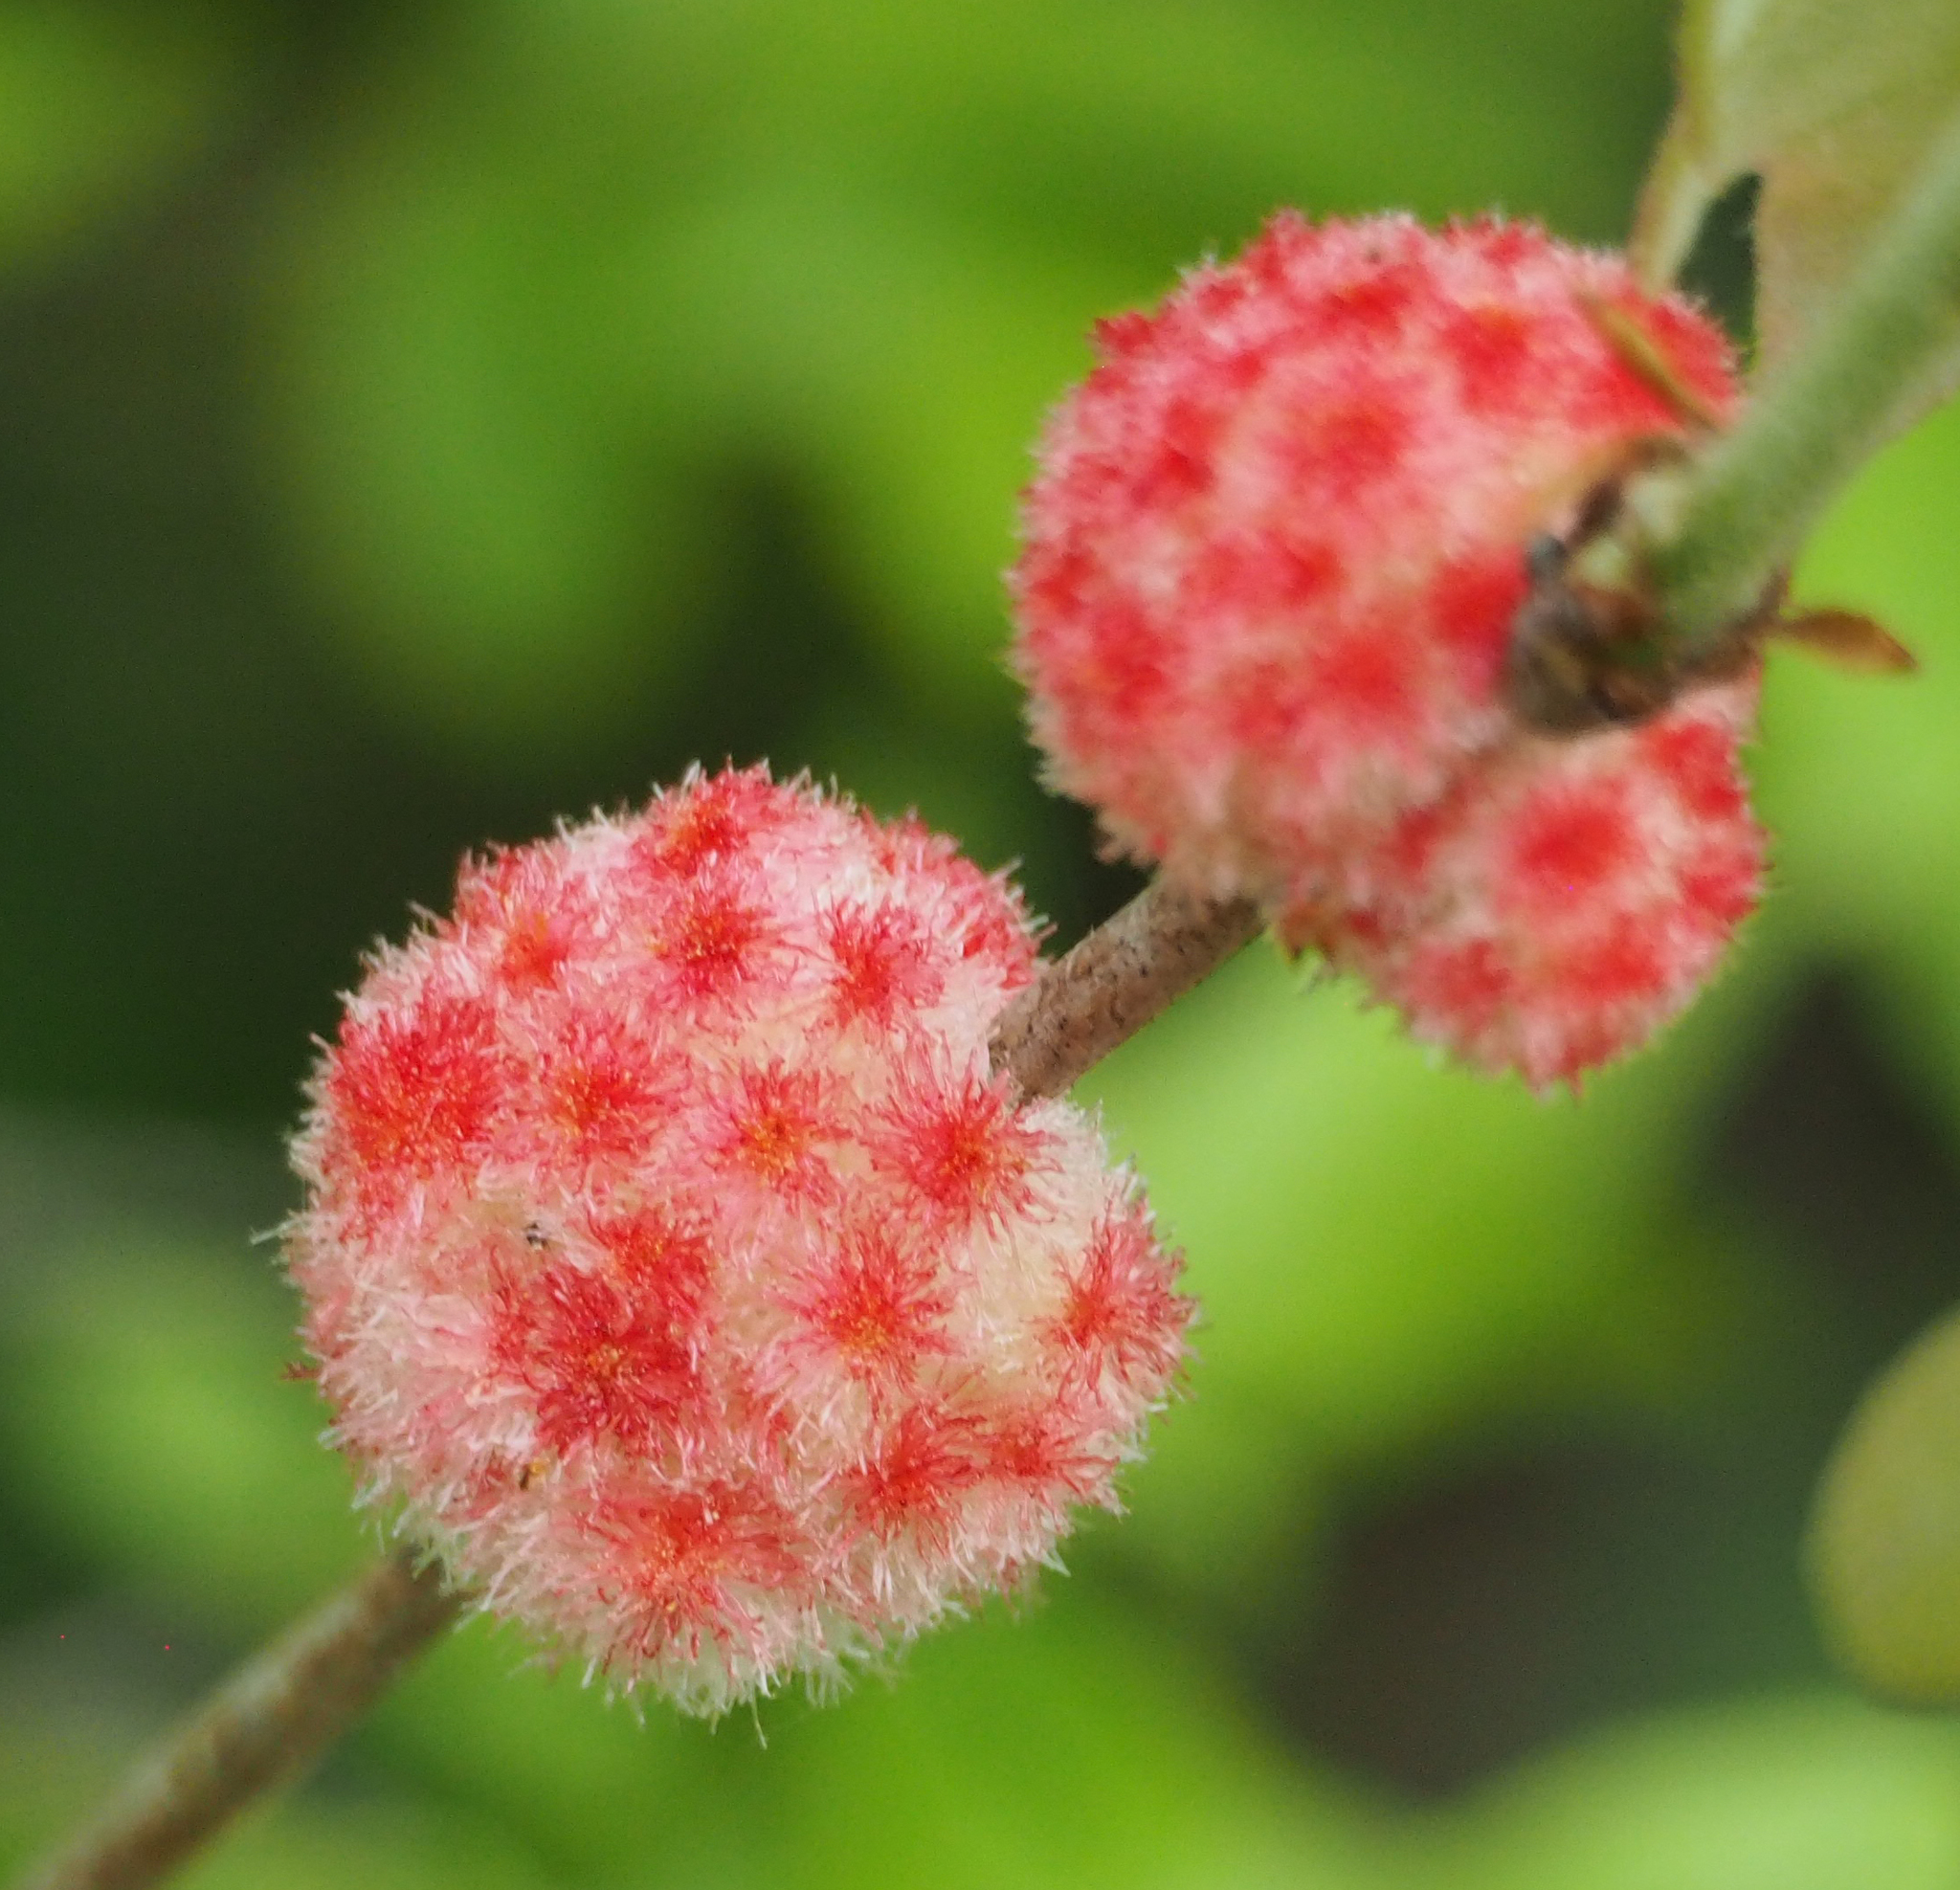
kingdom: Animalia
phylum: Arthropoda
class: Insecta
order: Hymenoptera
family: Cynipidae
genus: Callirhytis
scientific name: Callirhytis
